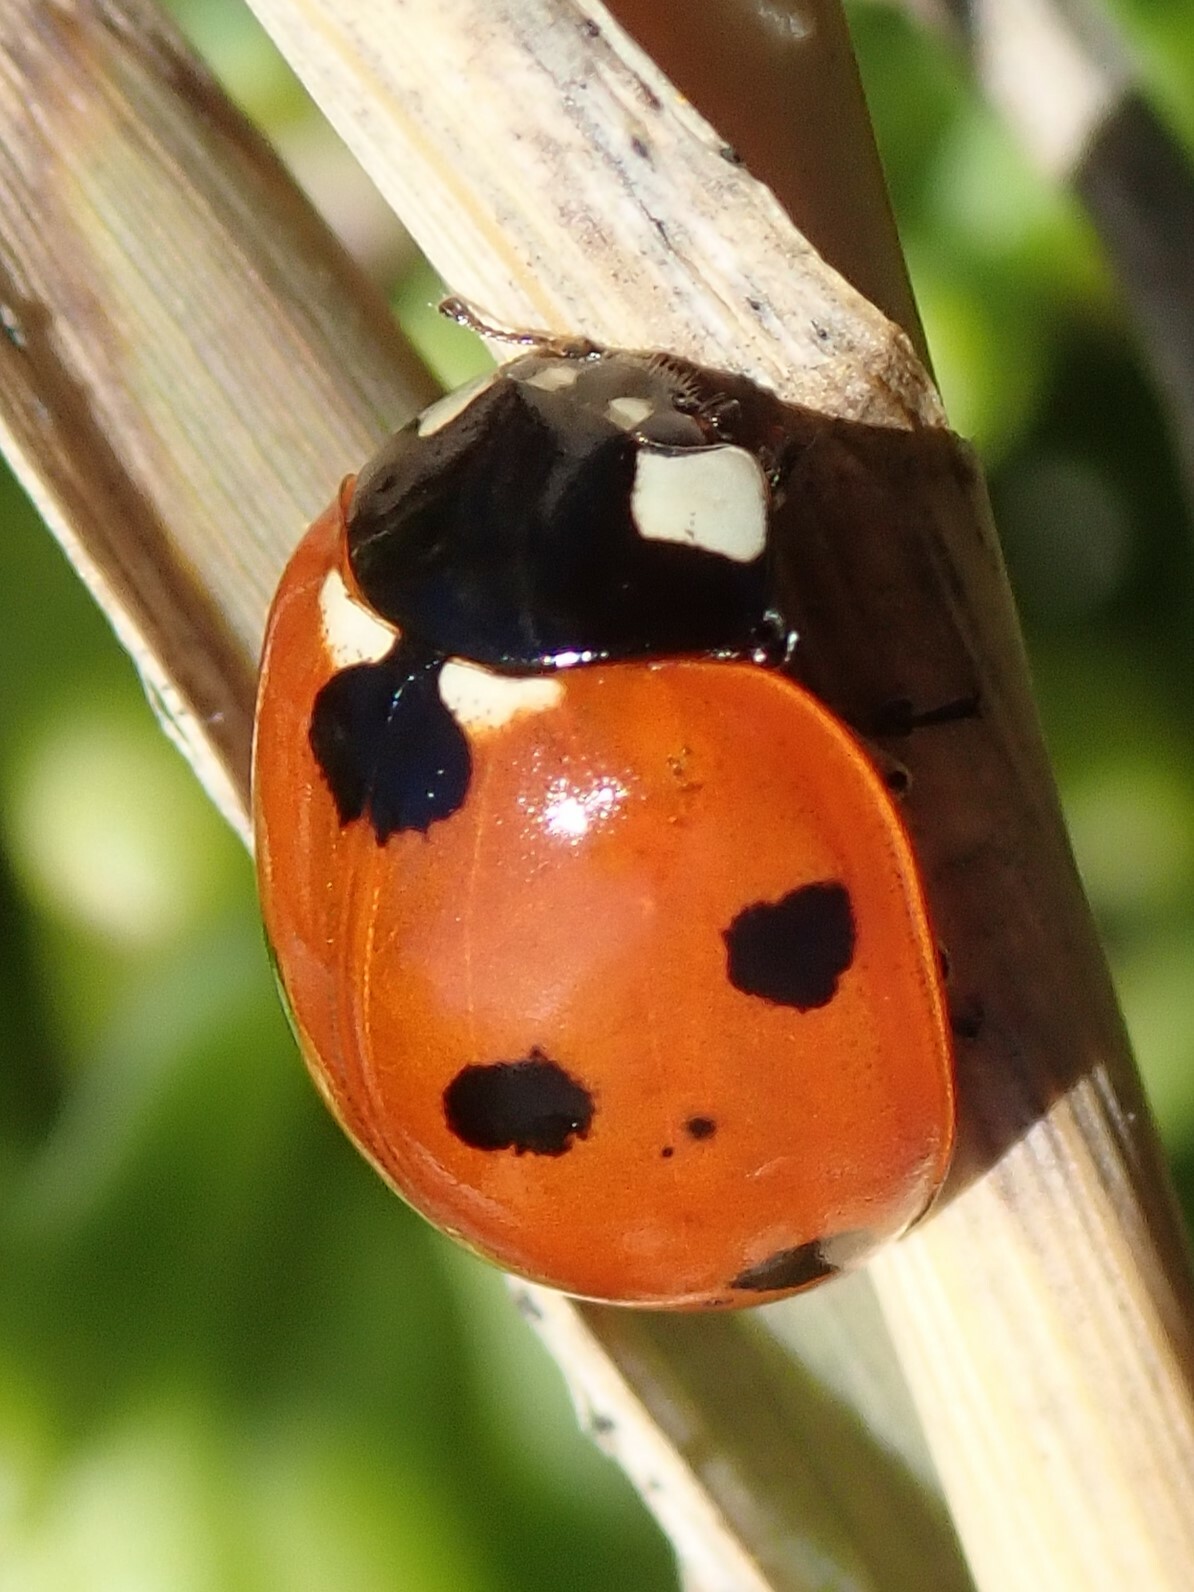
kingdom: Animalia
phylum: Arthropoda
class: Insecta
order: Coleoptera
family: Coccinellidae
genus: Coccinella
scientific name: Coccinella septempunctata
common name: Sevenspotted lady beetle
